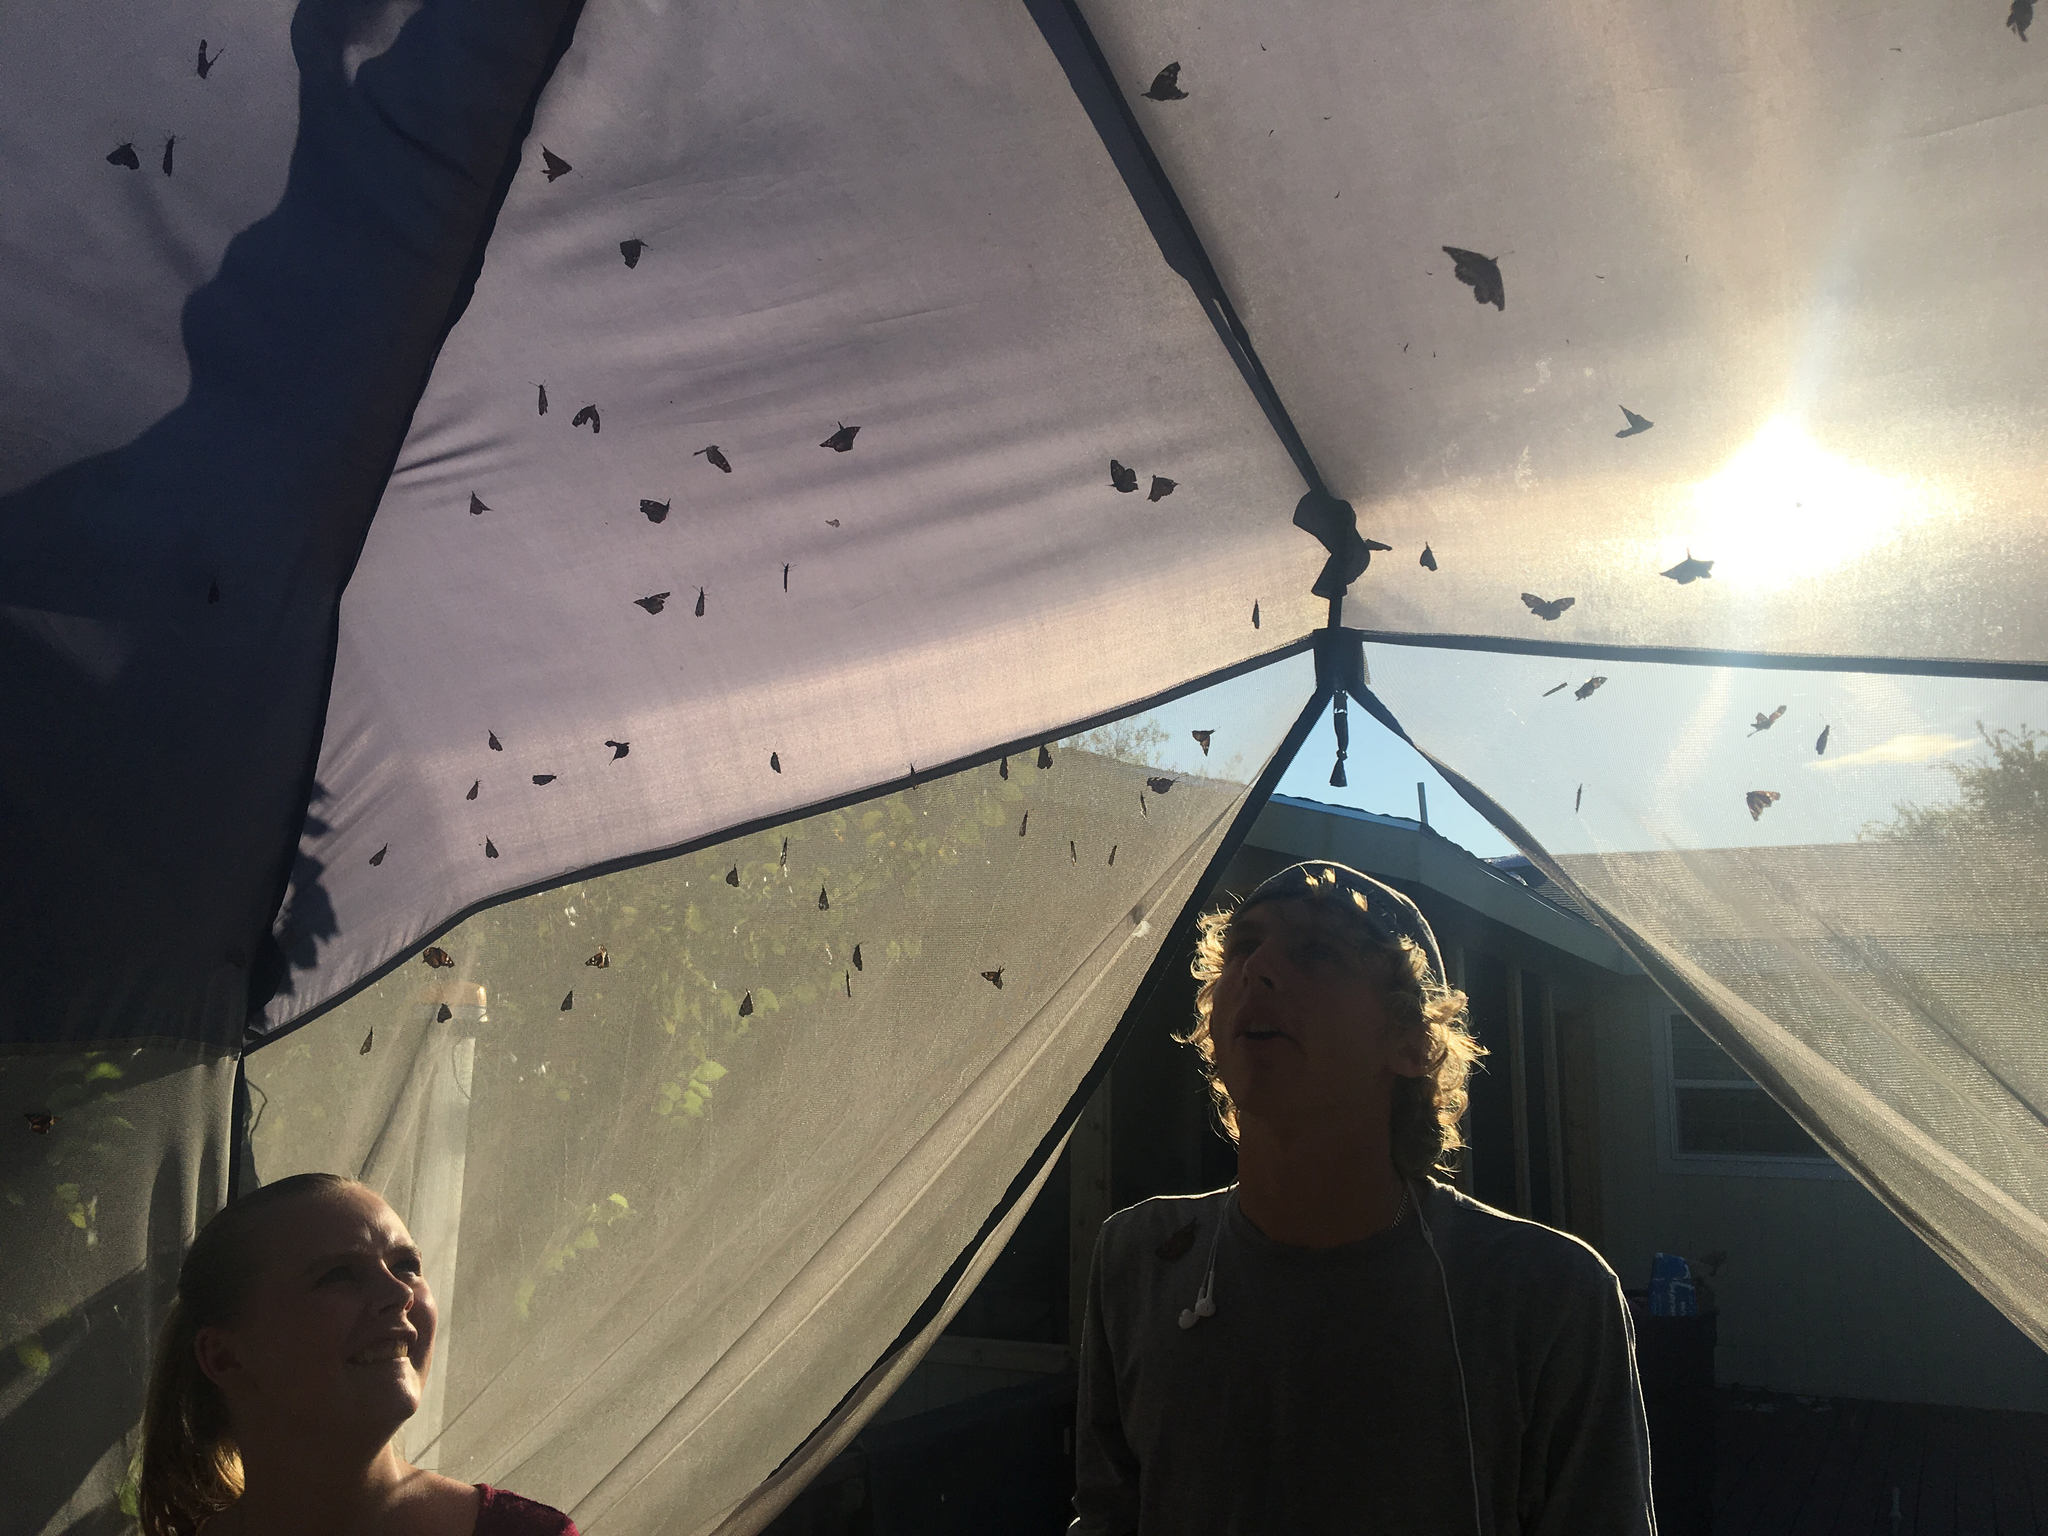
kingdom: Animalia
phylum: Arthropoda
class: Insecta
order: Lepidoptera
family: Nymphalidae
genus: Libytheana
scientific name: Libytheana carinenta
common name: American snout
